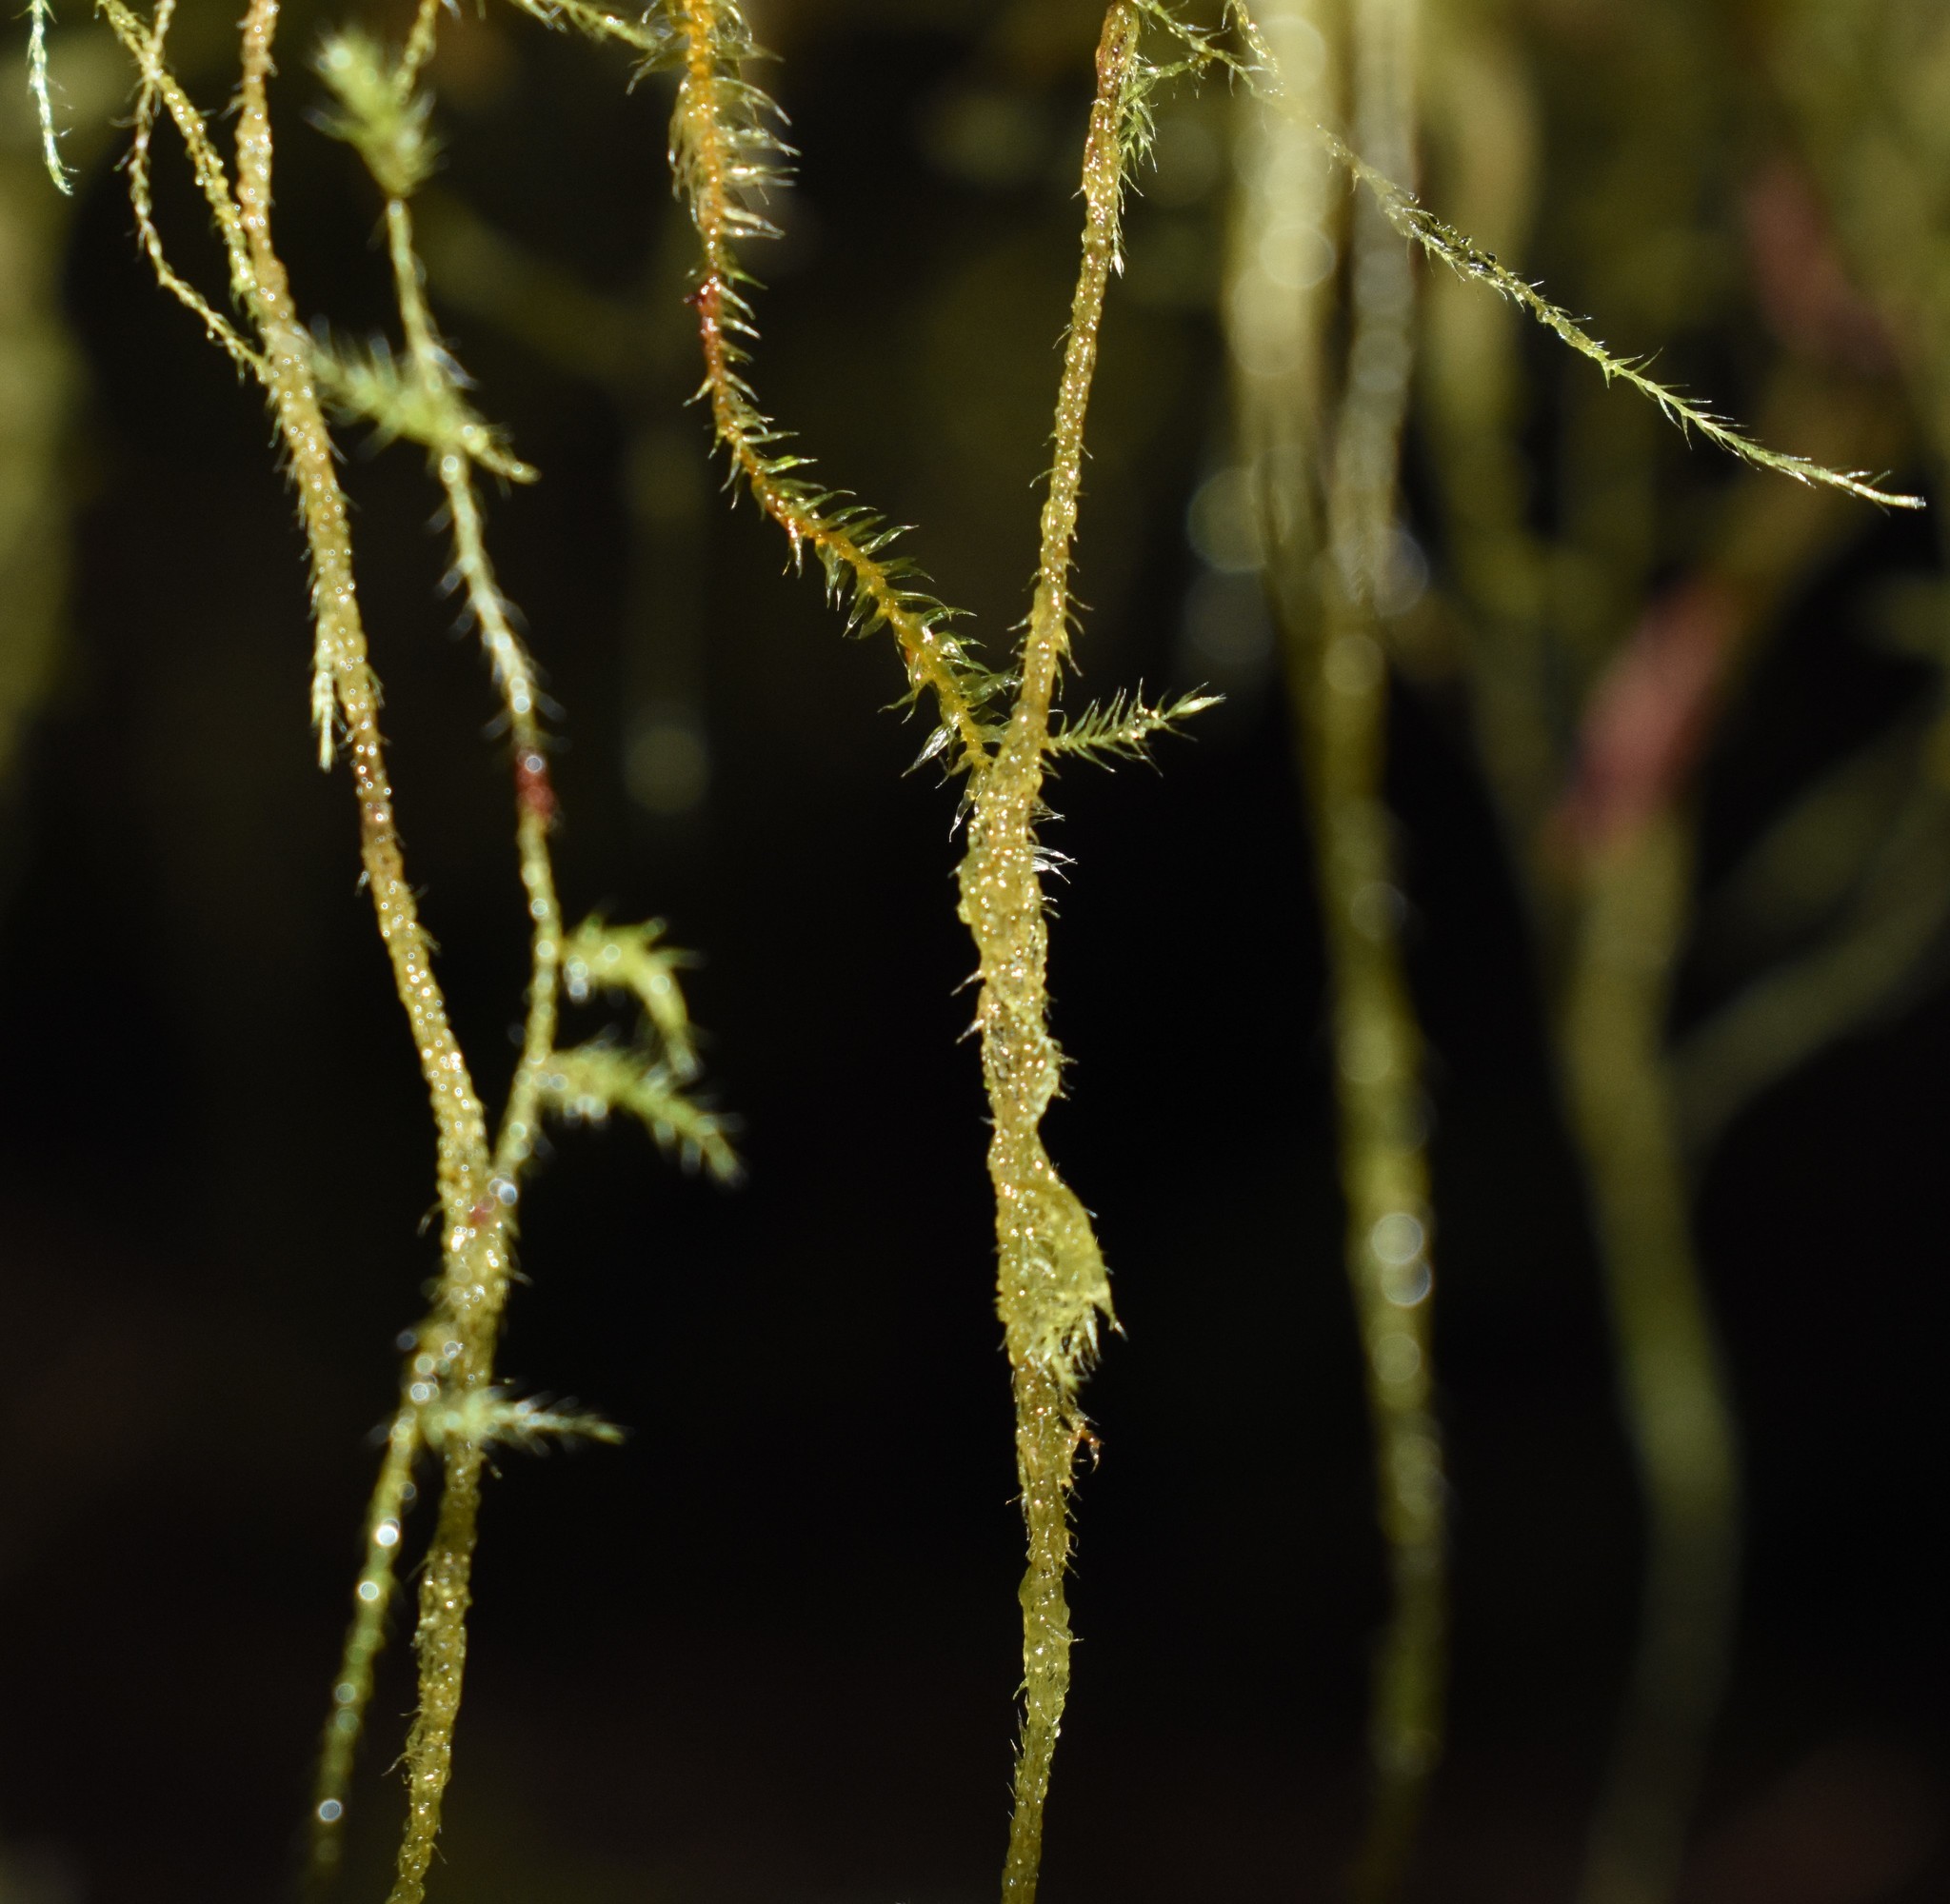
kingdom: Plantae
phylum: Bryophyta
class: Bryopsida
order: Hypnales
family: Lembophyllaceae
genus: Pseudisothecium
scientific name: Pseudisothecium stoloniferum
